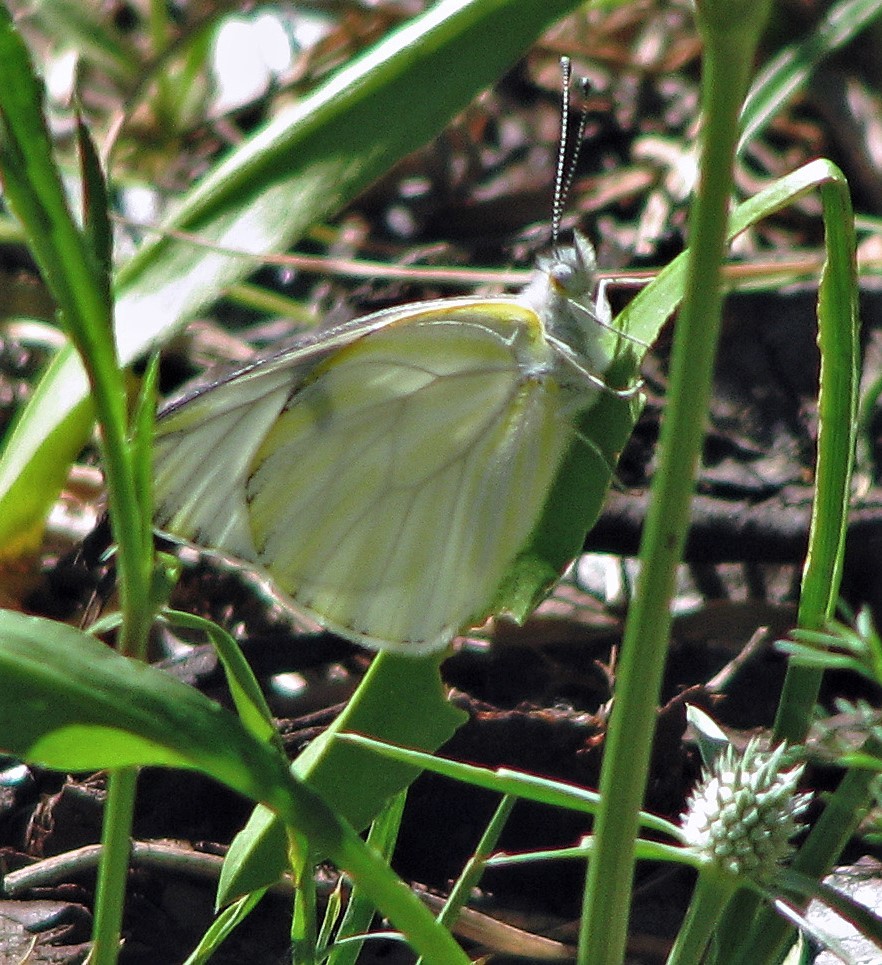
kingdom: Animalia
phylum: Arthropoda
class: Insecta
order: Lepidoptera
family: Pieridae
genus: Tatochila
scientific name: Tatochila mercedis
